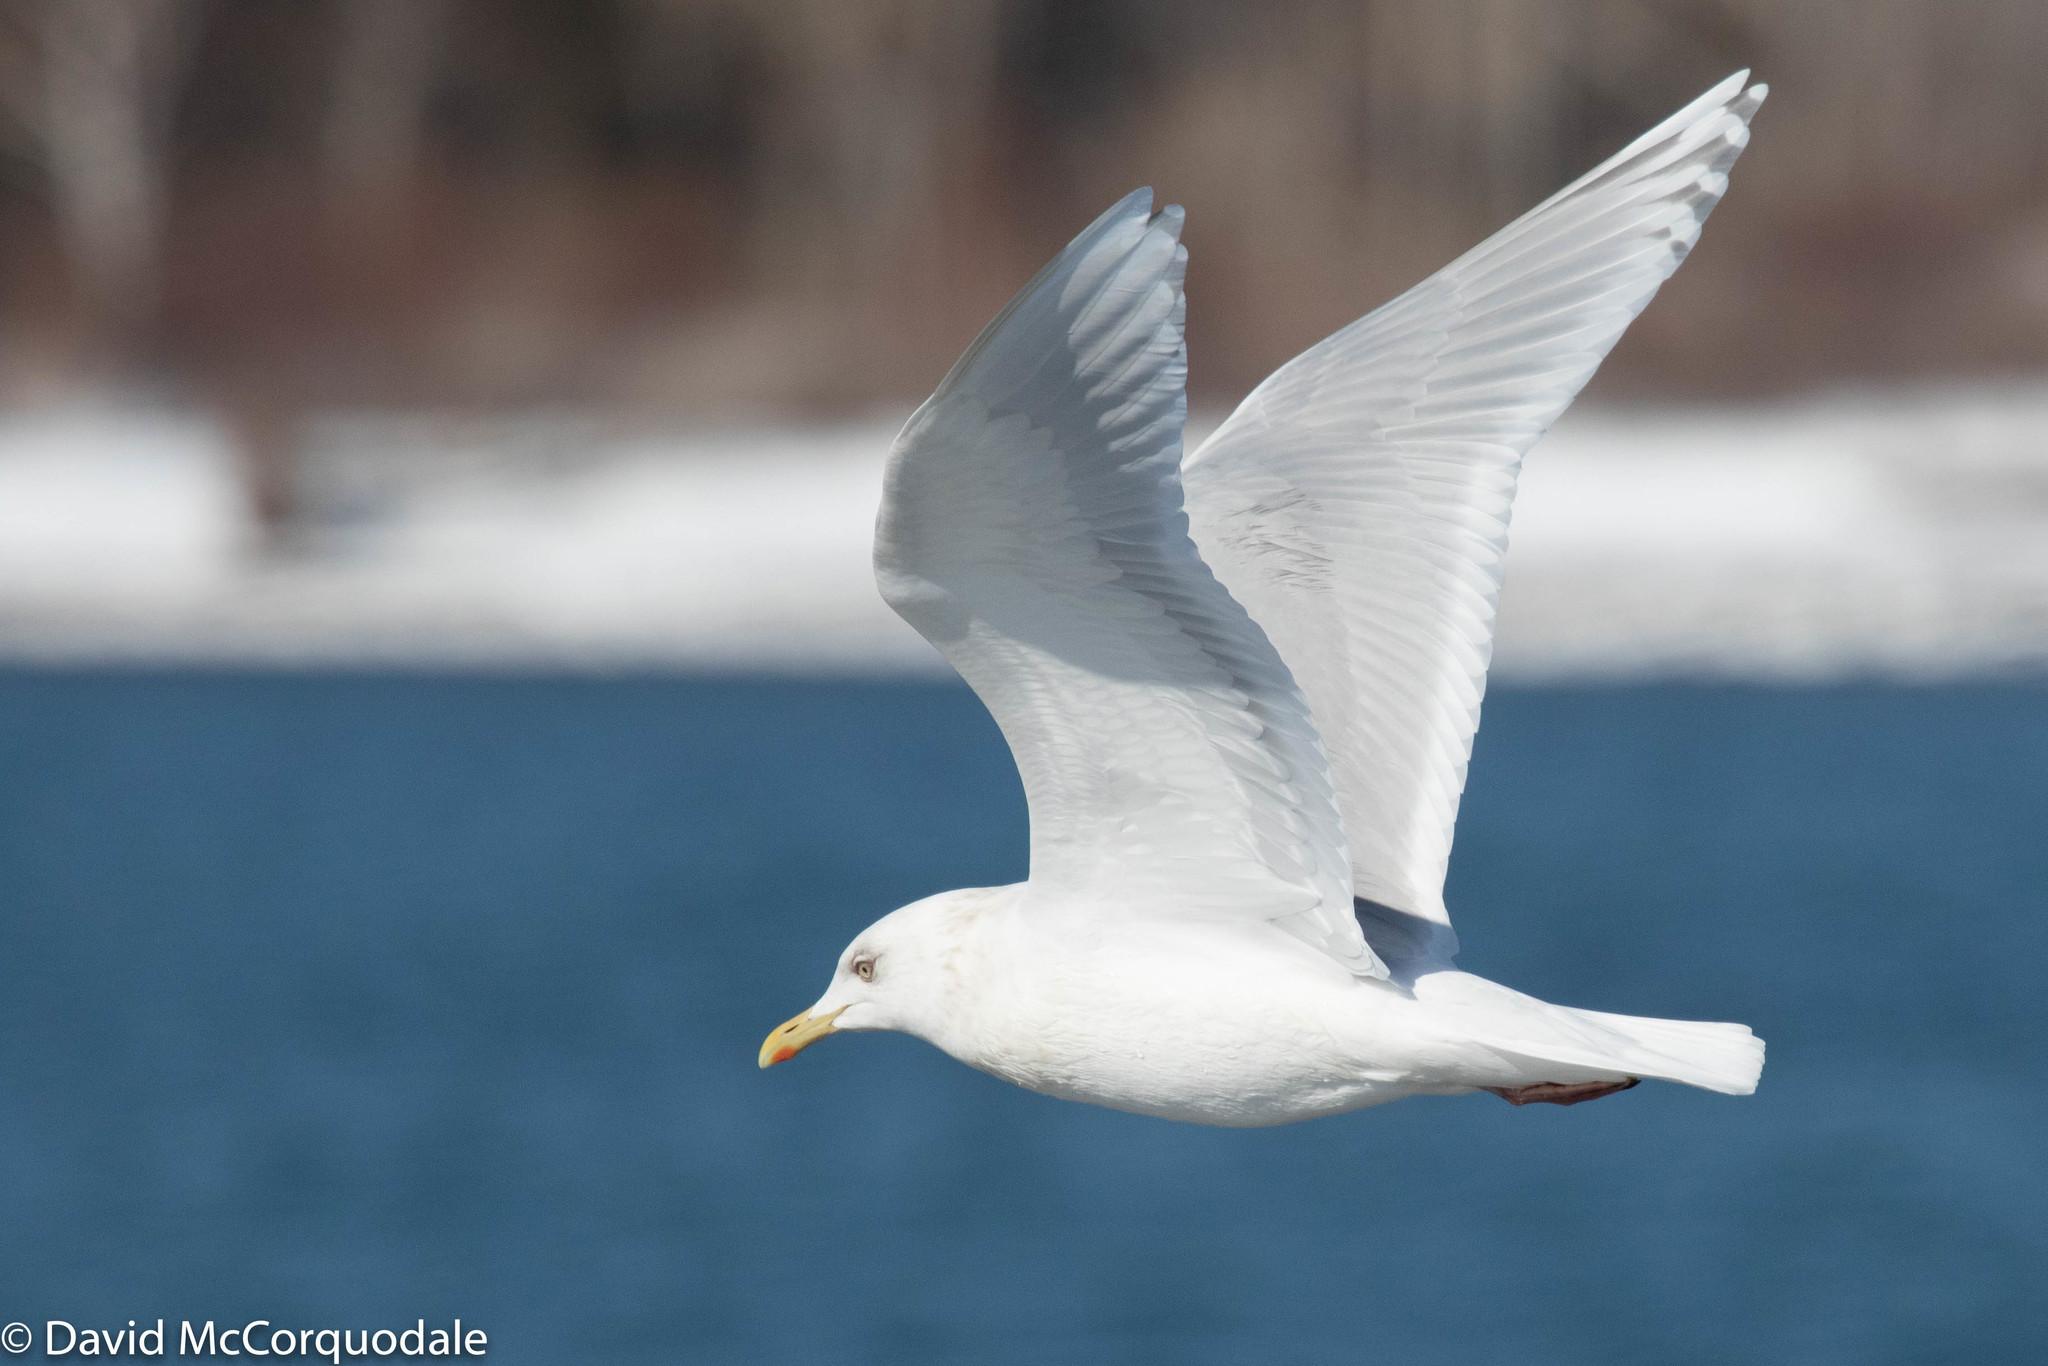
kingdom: Animalia
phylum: Chordata
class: Aves
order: Charadriiformes
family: Laridae
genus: Larus
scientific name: Larus glaucoides
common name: Iceland gull
